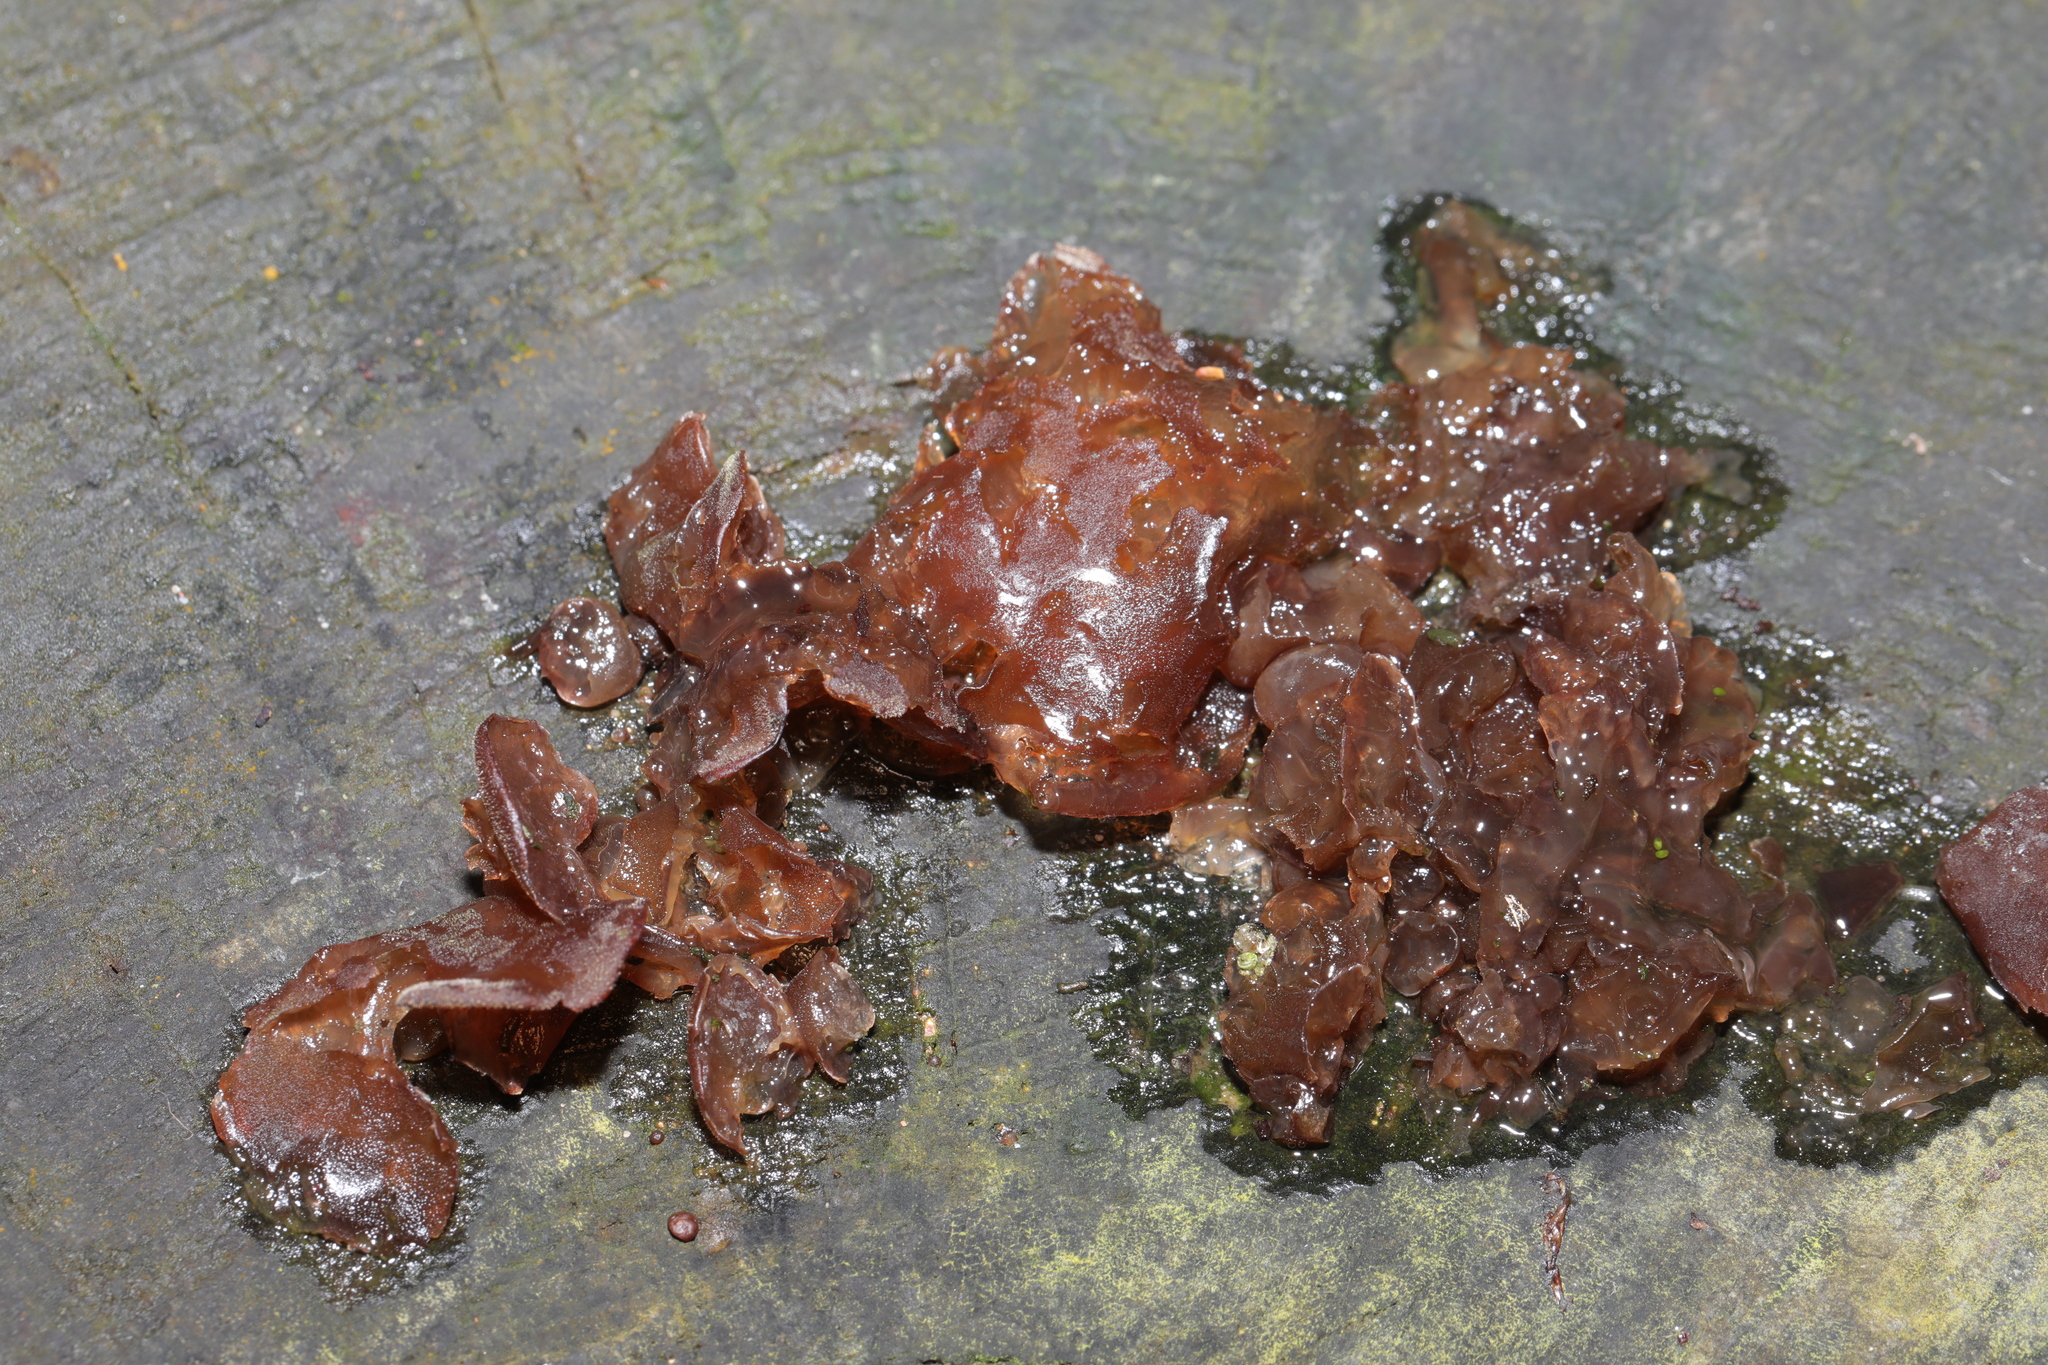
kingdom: Fungi
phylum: Basidiomycota
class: Agaricomycetes
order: Auriculariales
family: Auriculariaceae
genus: Auricularia
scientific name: Auricularia auricula-judae
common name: Jelly ear
